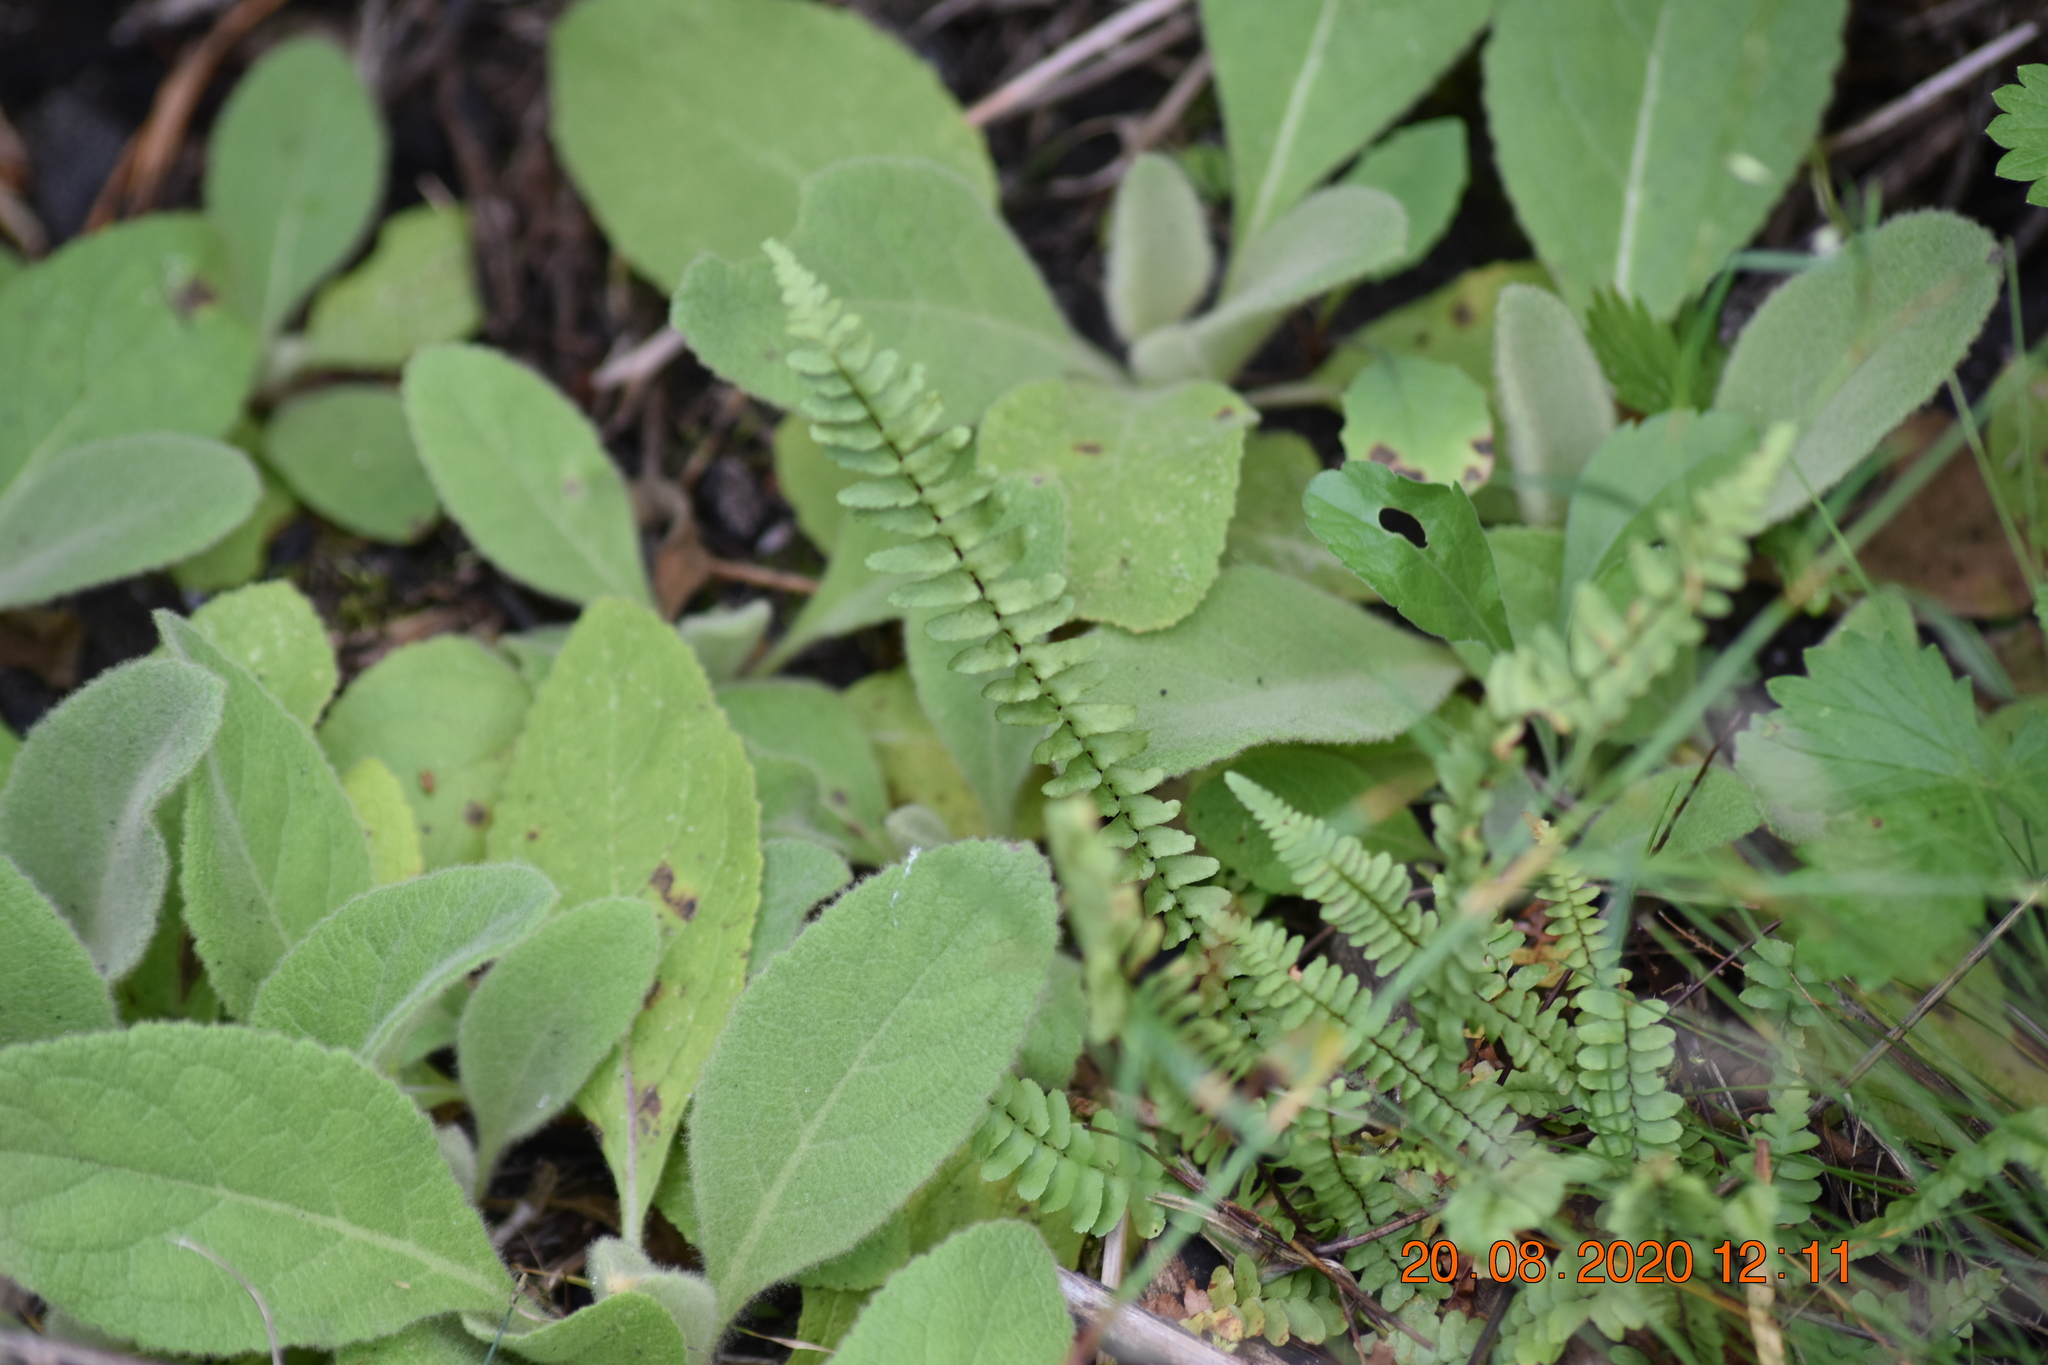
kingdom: Plantae
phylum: Tracheophyta
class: Polypodiopsida
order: Polypodiales
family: Aspleniaceae
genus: Asplenium
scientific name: Asplenium platyneuron
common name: Ebony spleenwort
